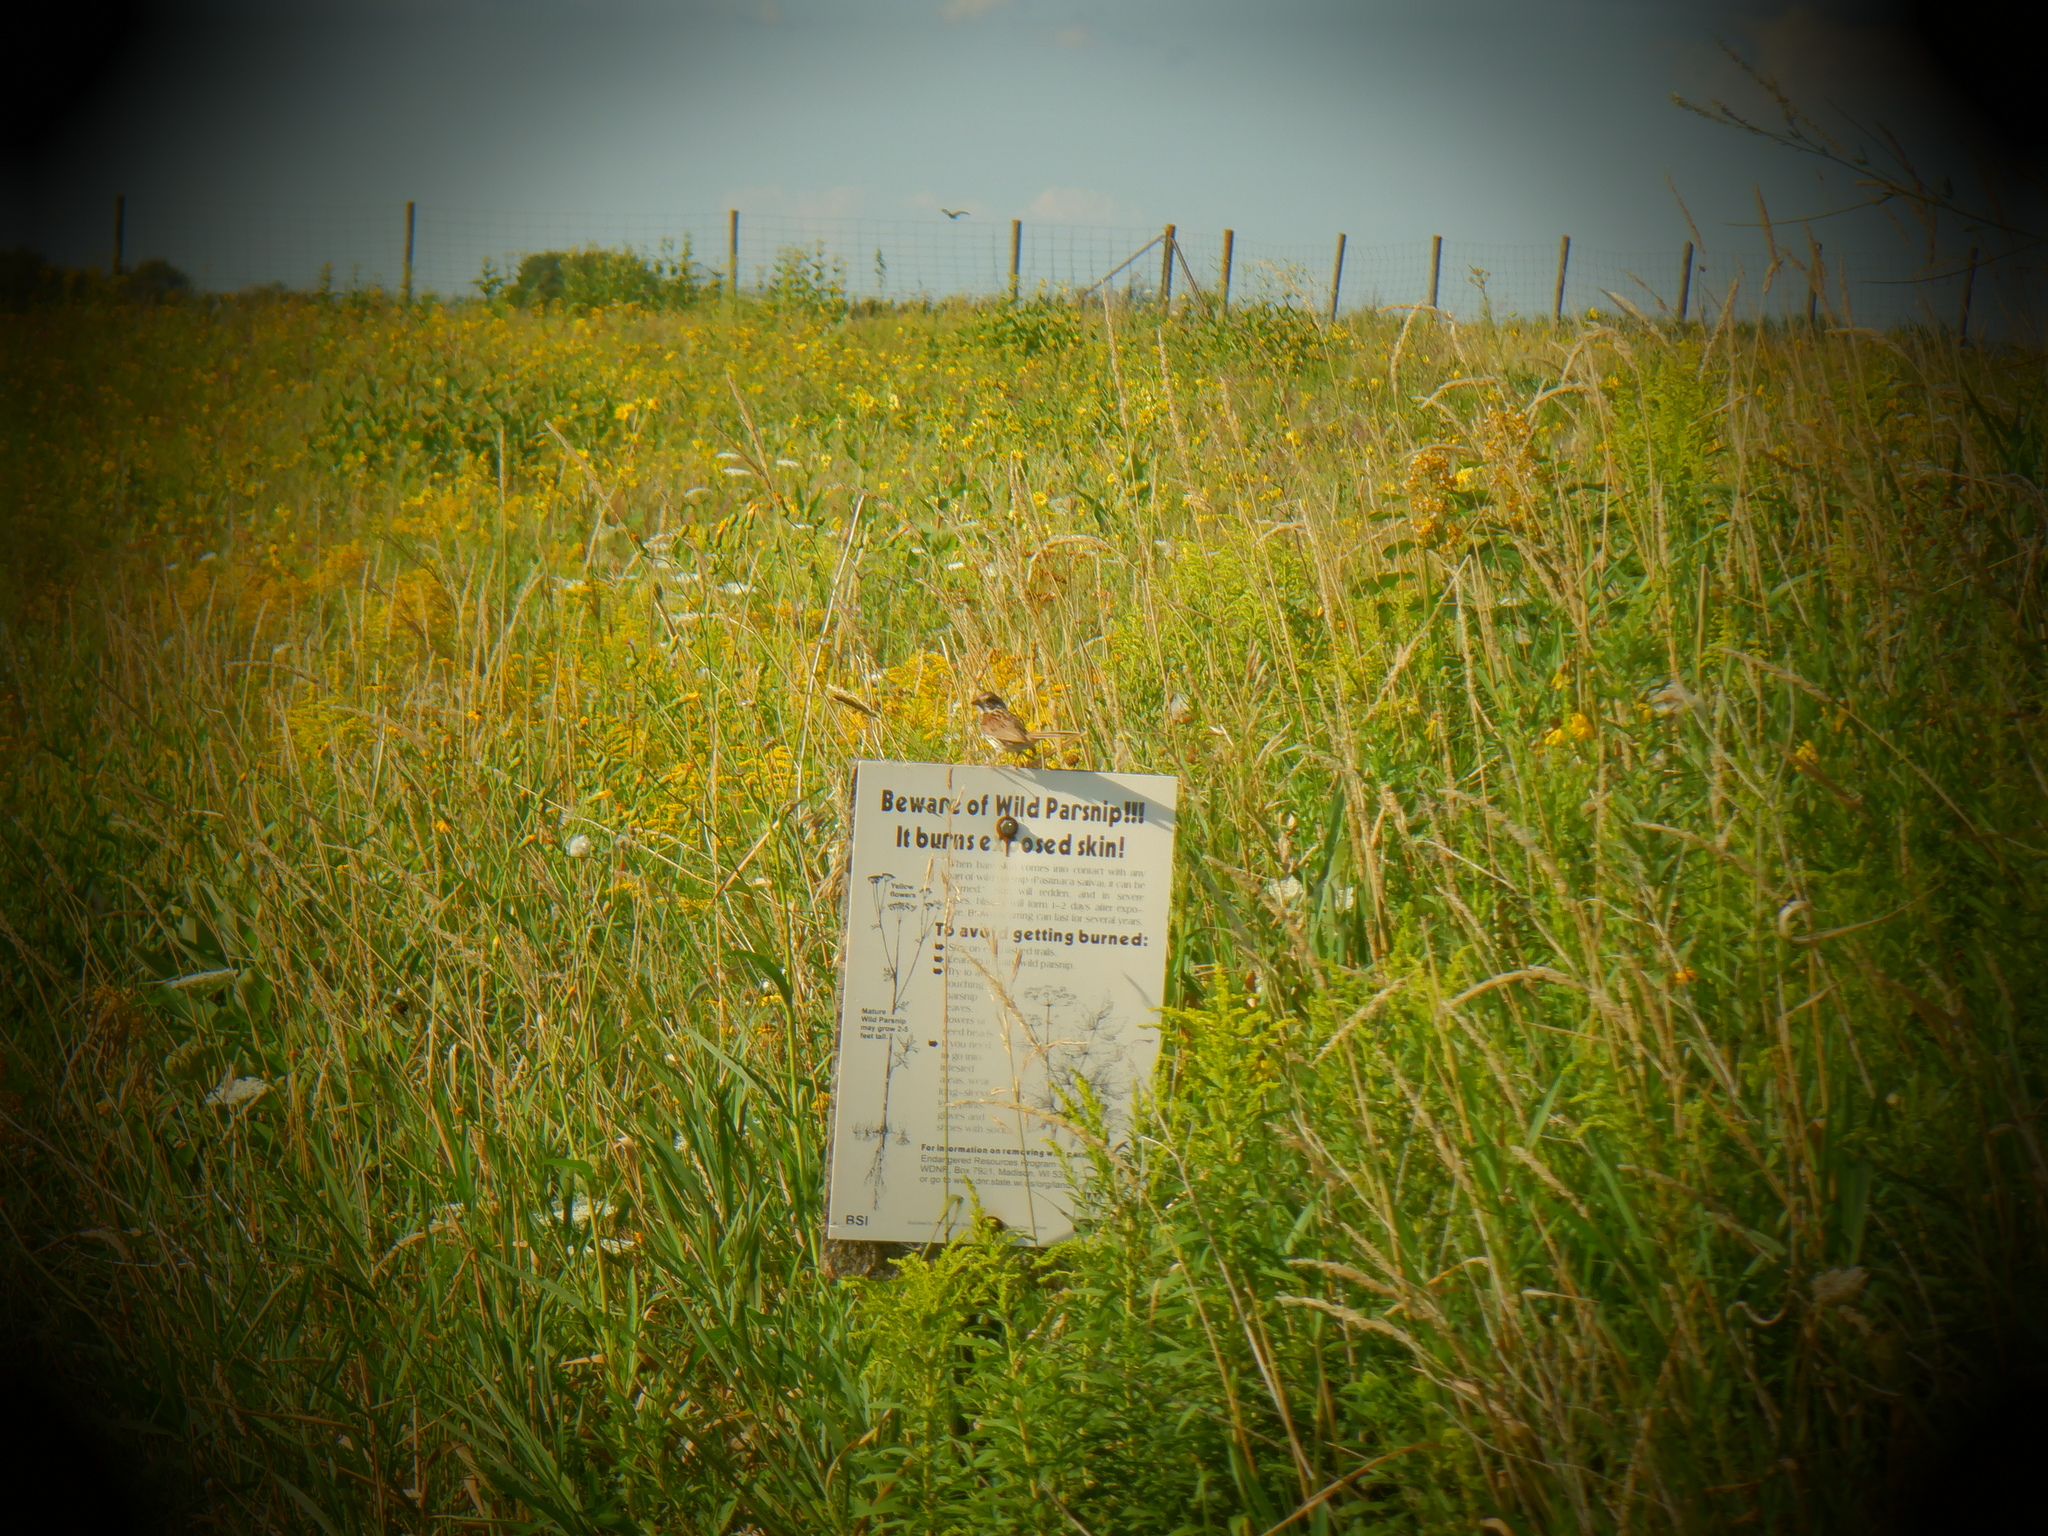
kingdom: Animalia
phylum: Chordata
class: Aves
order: Passeriformes
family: Passerellidae
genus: Melospiza
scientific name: Melospiza melodia
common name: Song sparrow
